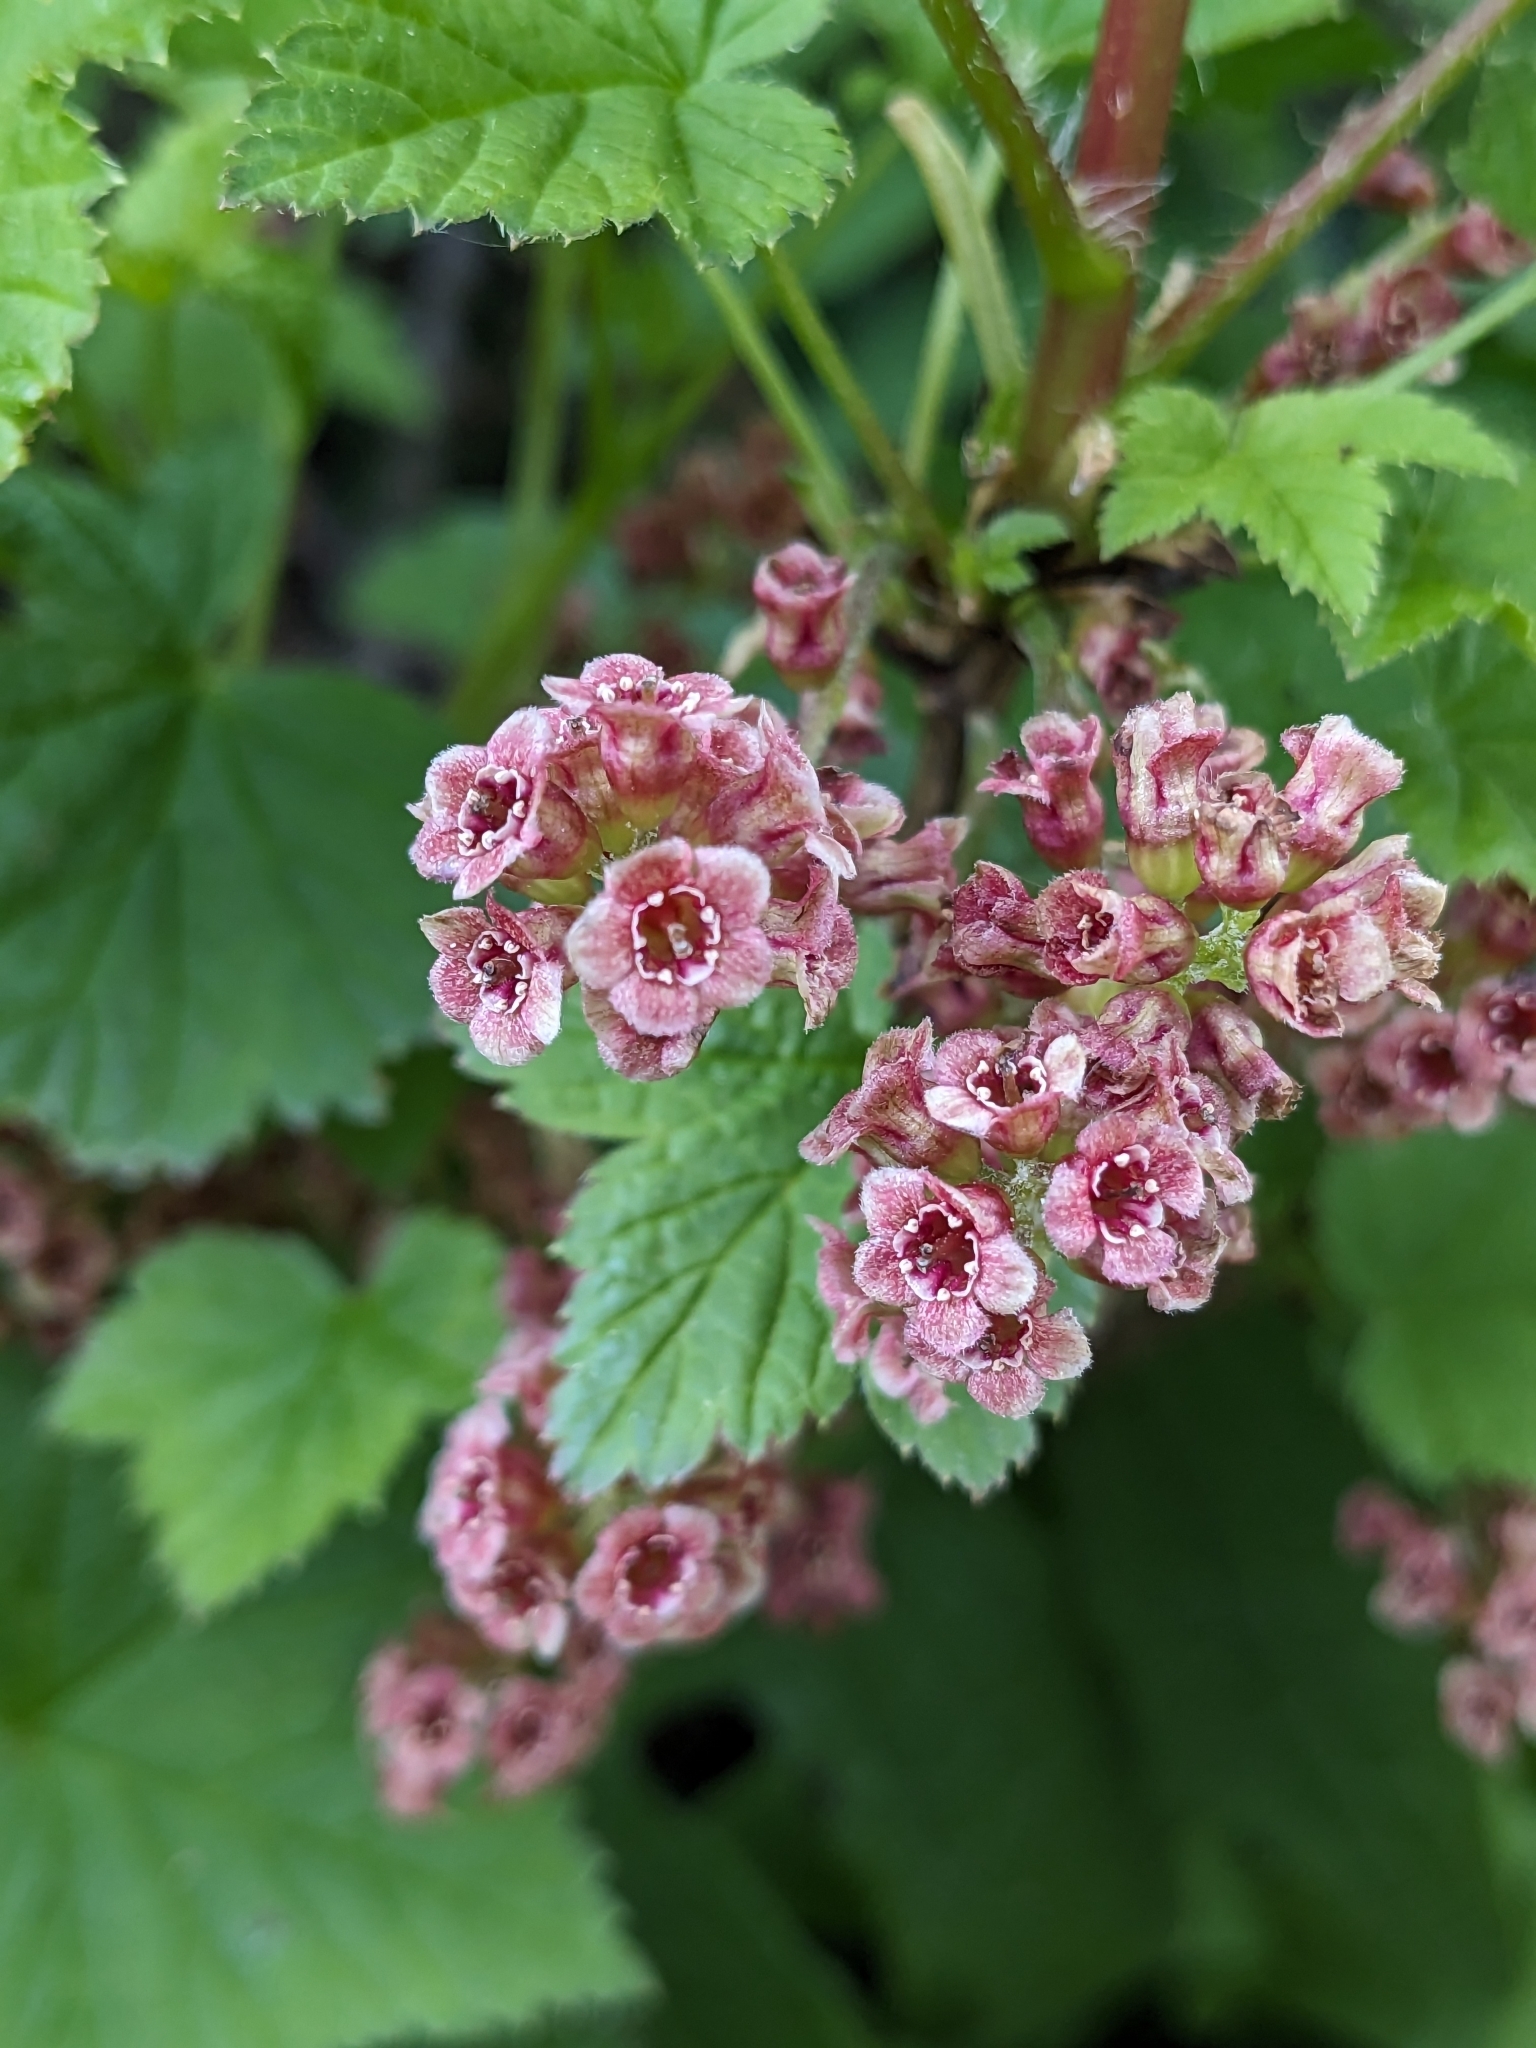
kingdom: Plantae
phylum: Tracheophyta
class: Magnoliopsida
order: Saxifragales
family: Grossulariaceae
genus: Ribes
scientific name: Ribes petraeum
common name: Rock currant
